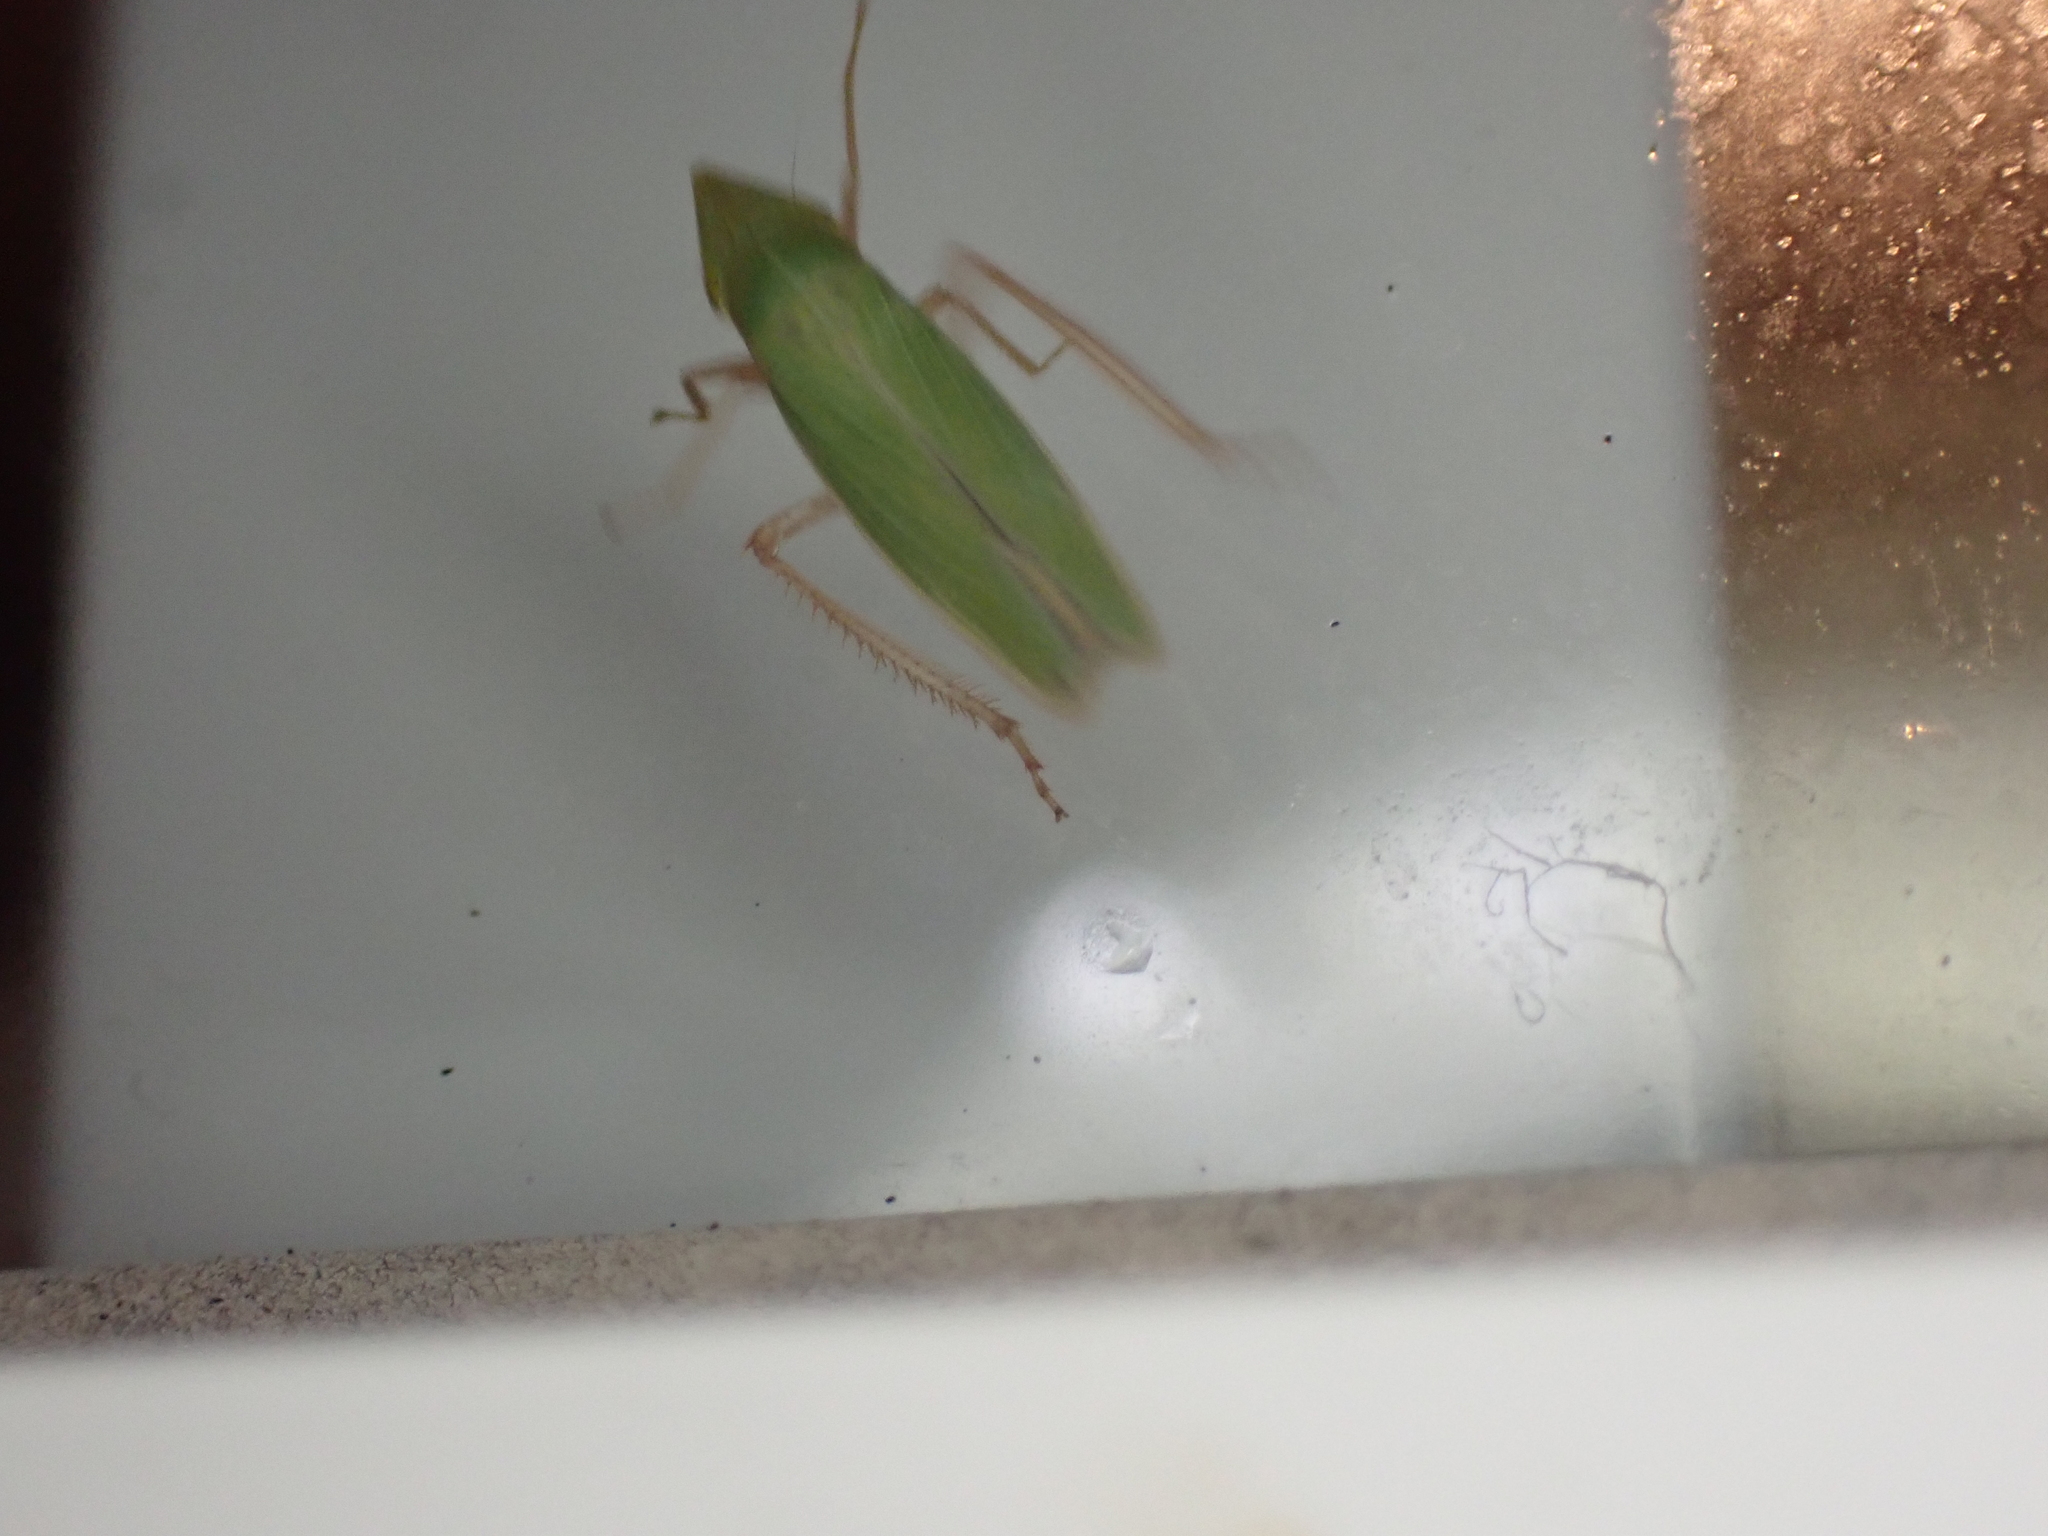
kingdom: Animalia
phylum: Arthropoda
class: Insecta
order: Hemiptera
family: Cicadellidae
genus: Draeculacephala
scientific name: Draeculacephala antica
